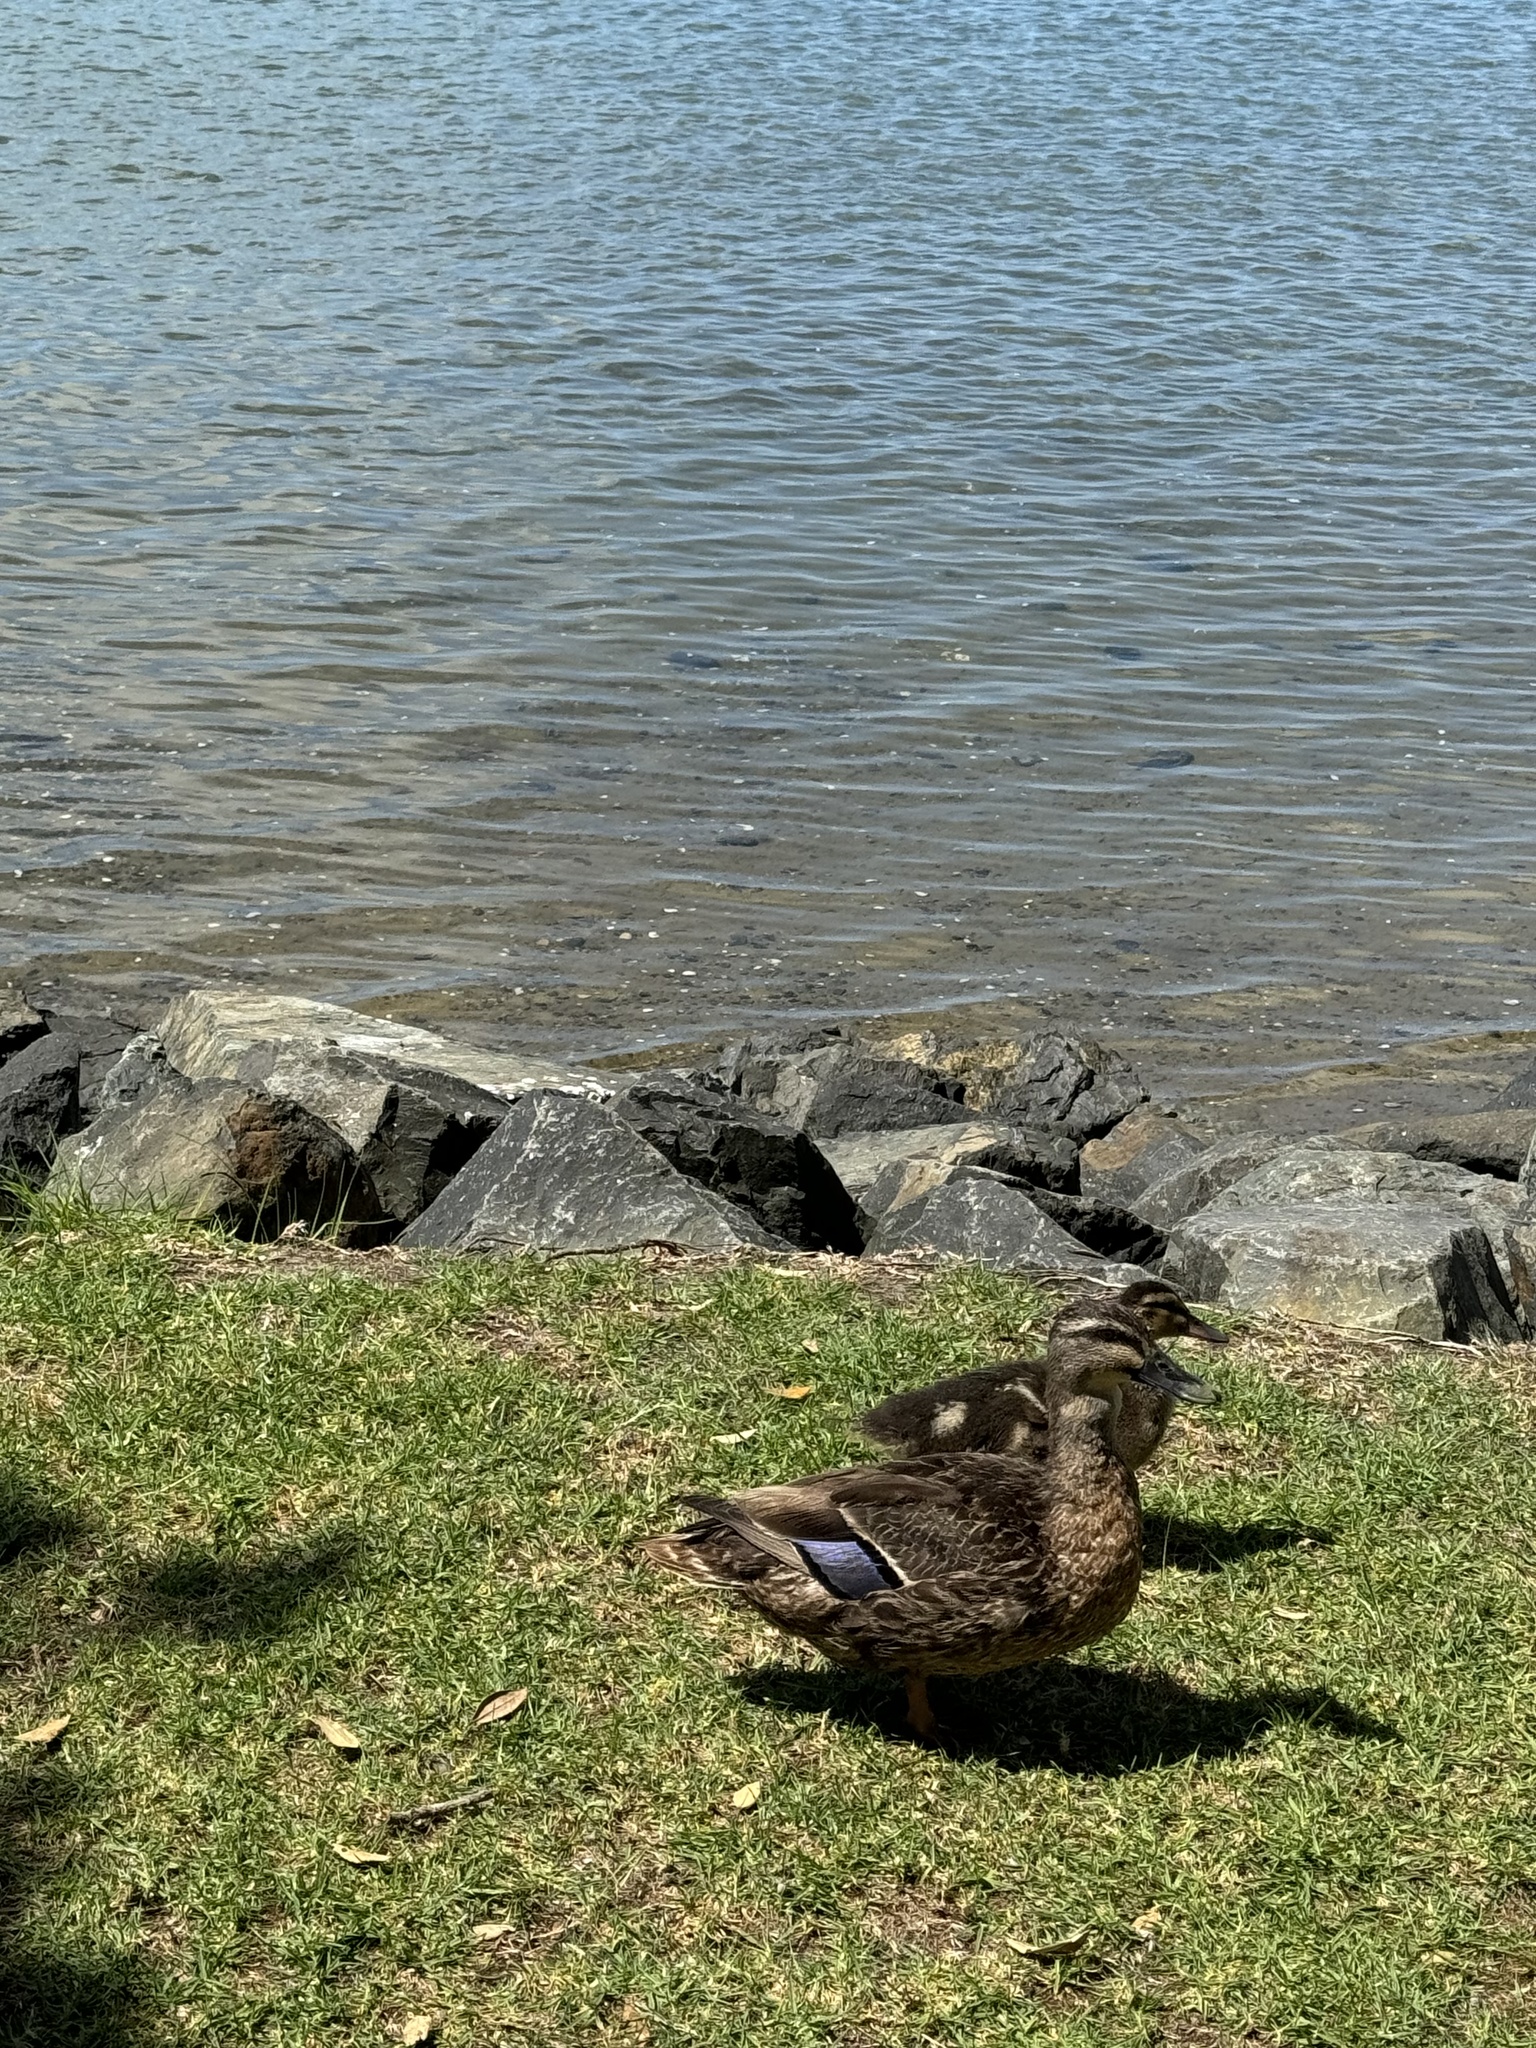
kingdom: Animalia
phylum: Chordata
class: Aves
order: Anseriformes
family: Anatidae
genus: Anas
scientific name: Anas
